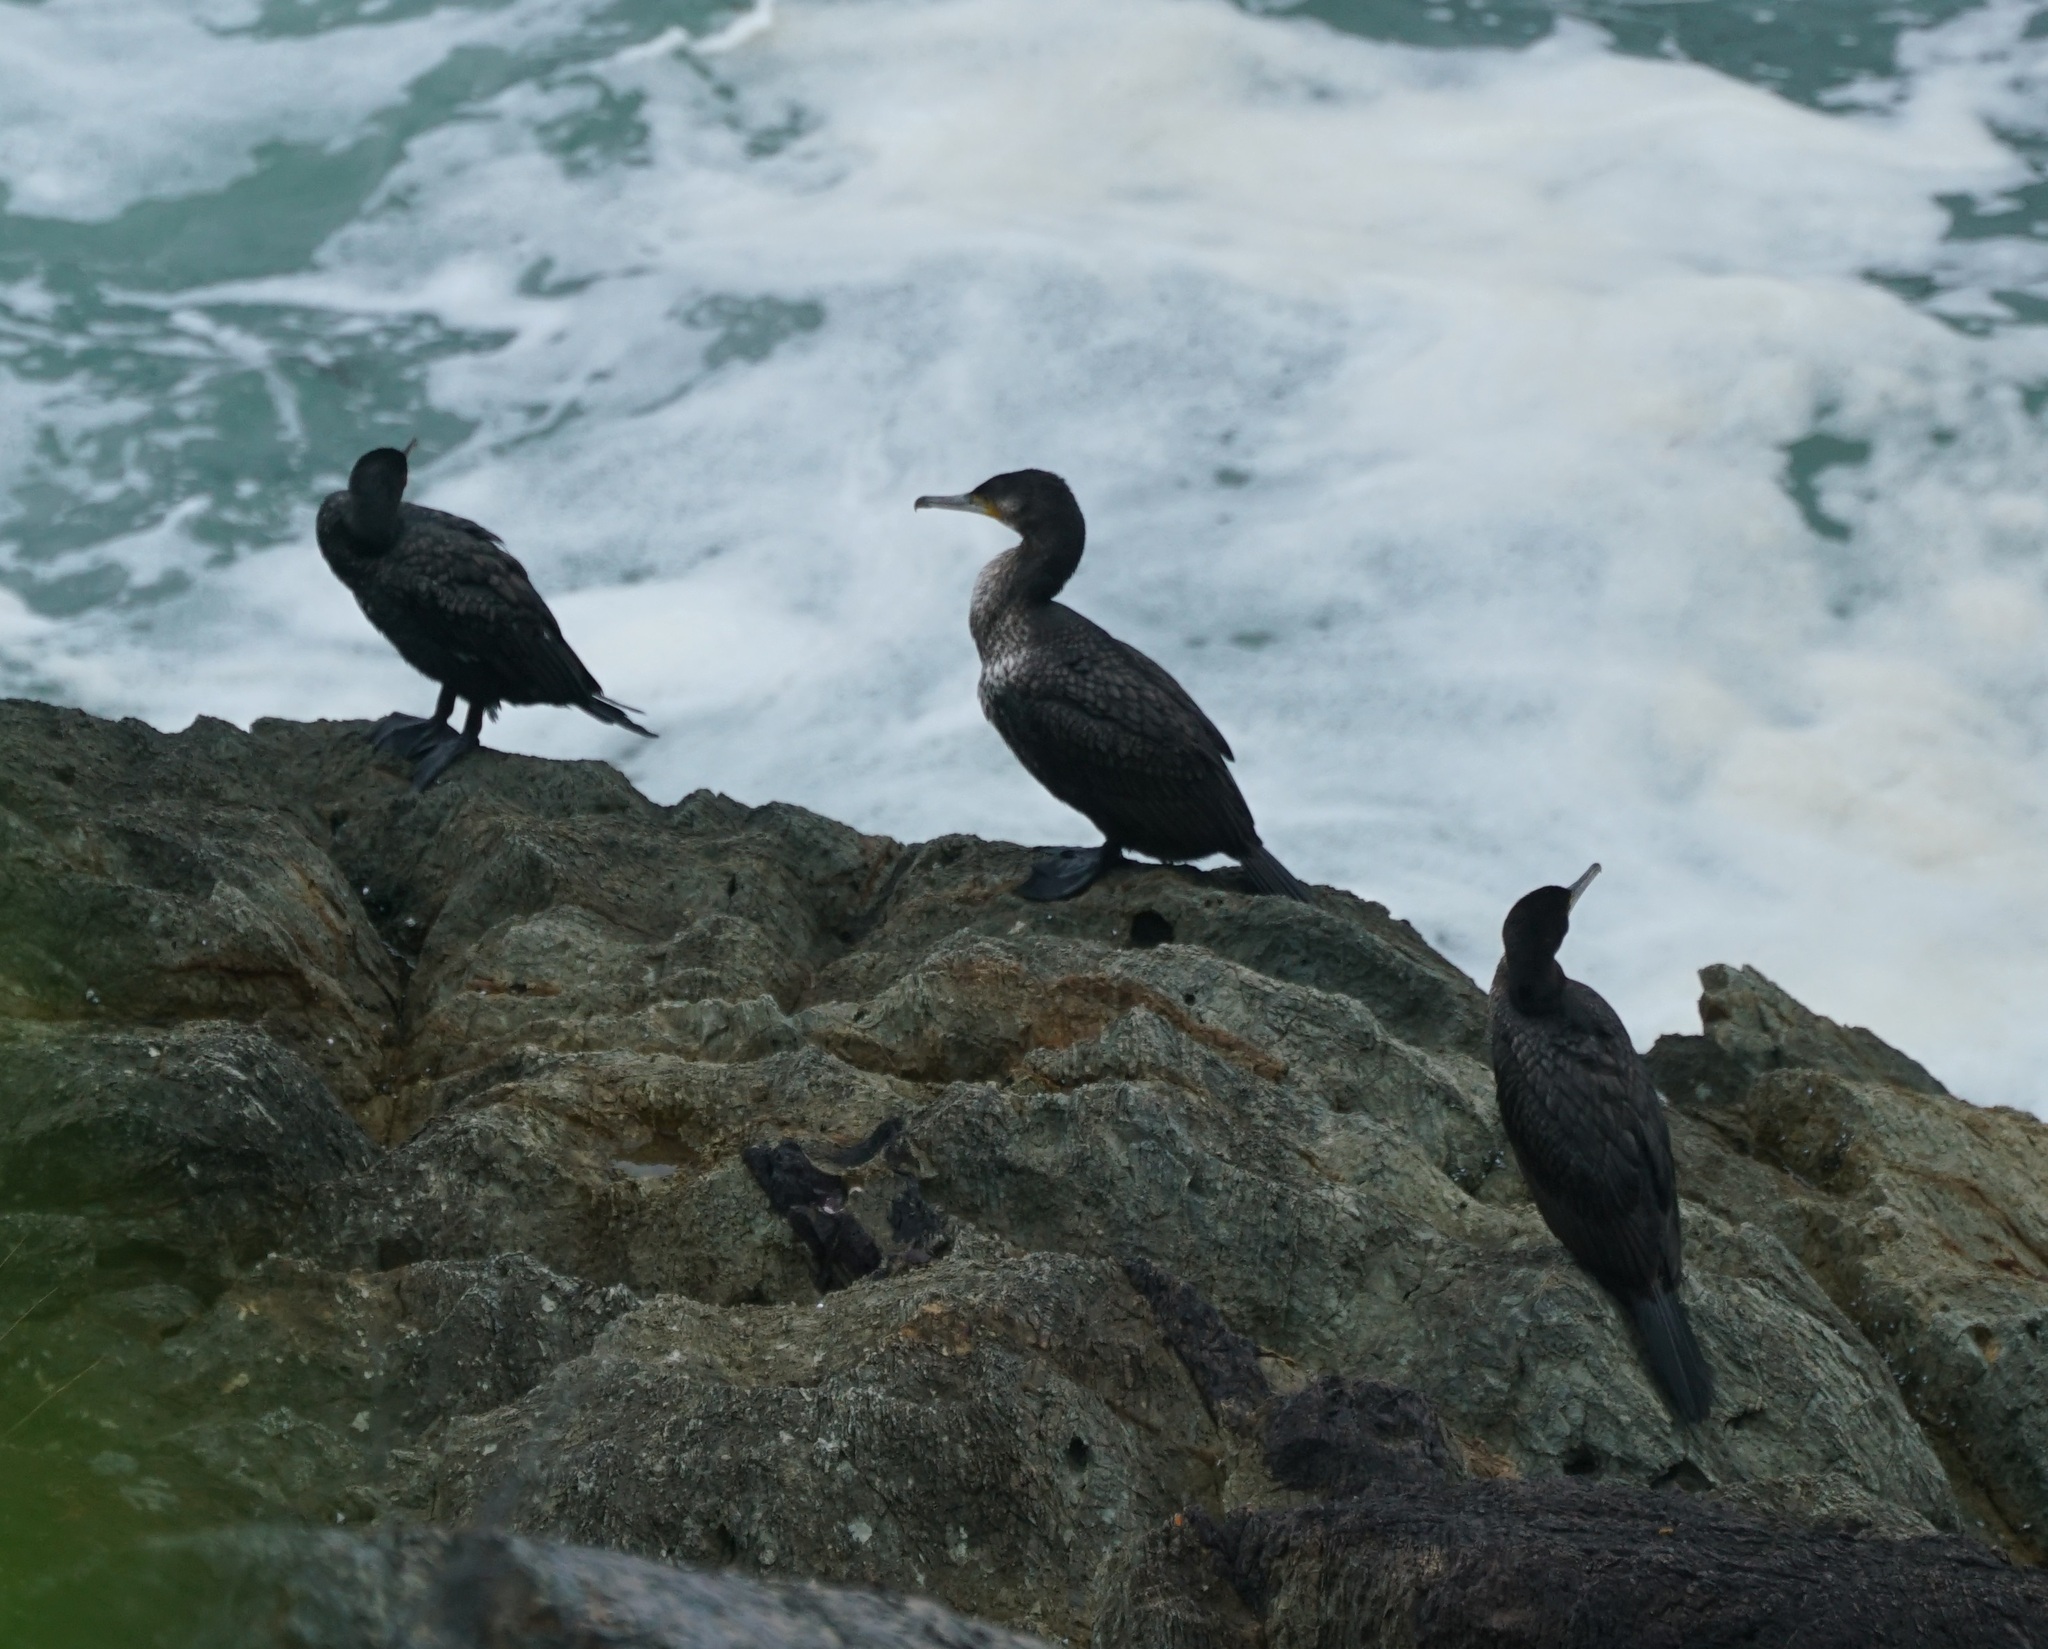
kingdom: Animalia
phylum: Chordata
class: Aves
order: Suliformes
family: Phalacrocoracidae
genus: Phalacrocorax
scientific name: Phalacrocorax carbo
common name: Great cormorant
